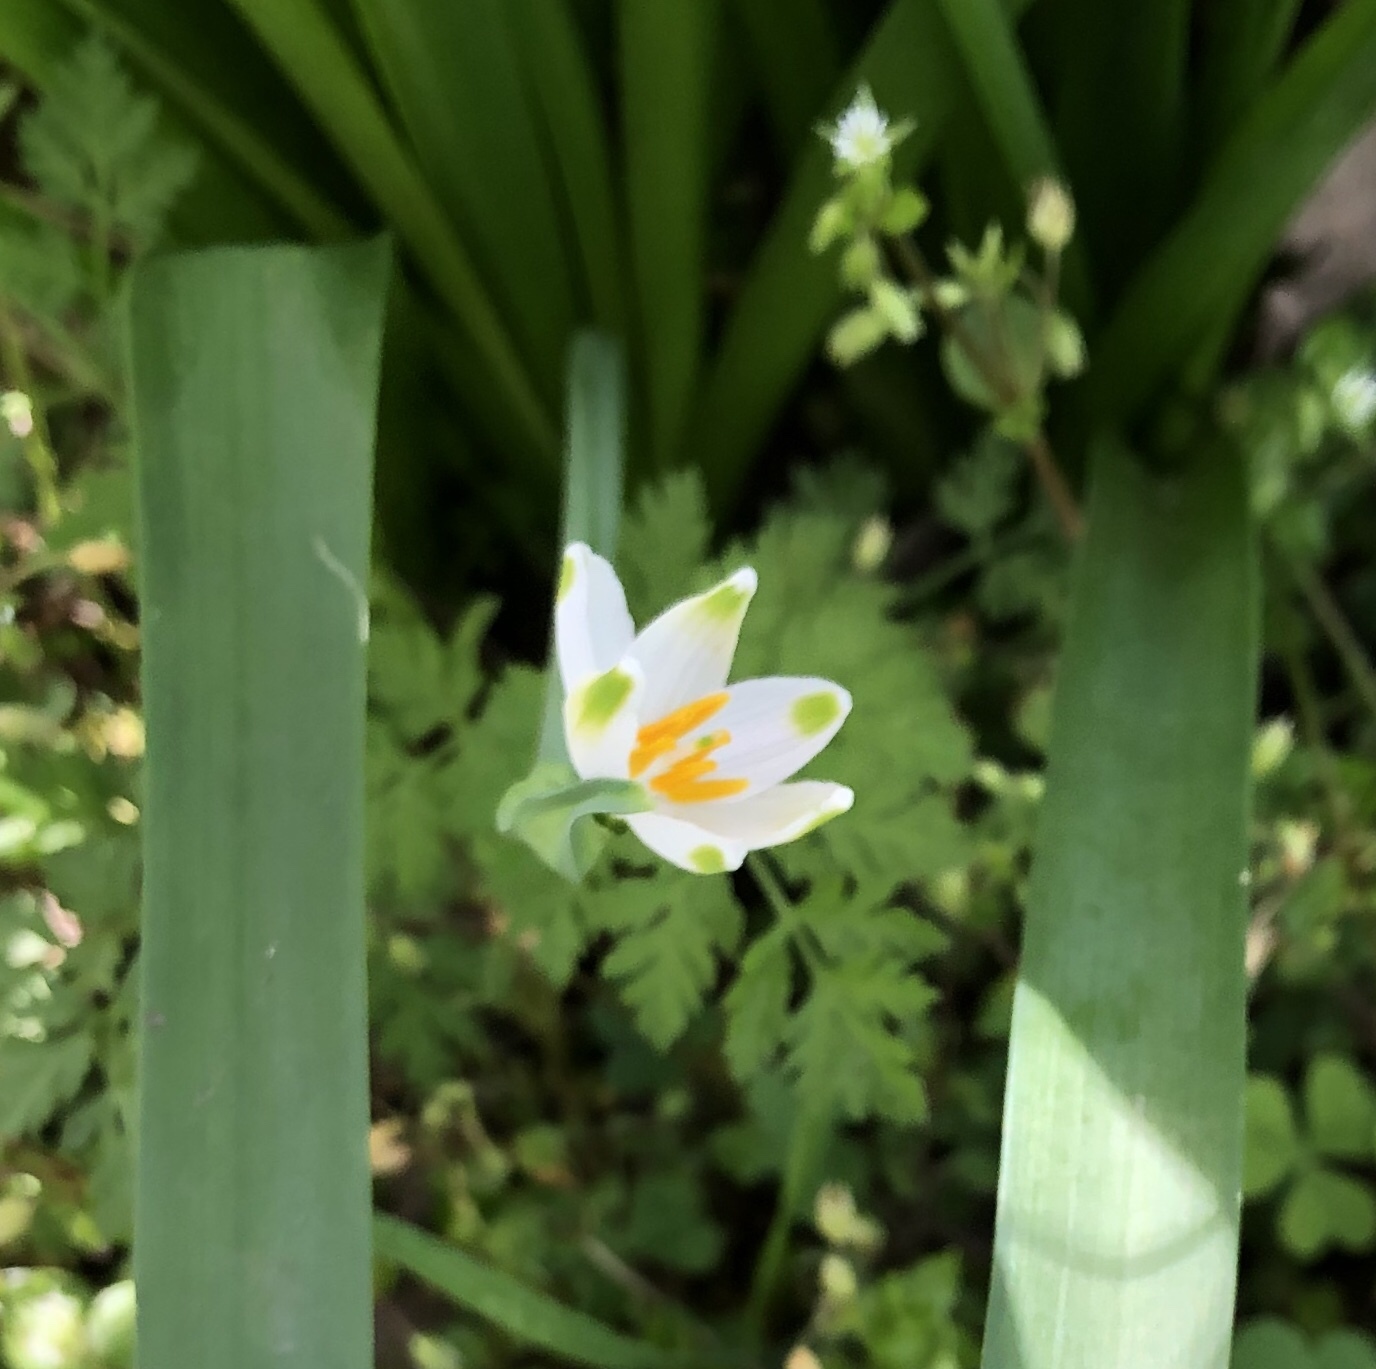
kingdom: Plantae
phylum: Tracheophyta
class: Liliopsida
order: Asparagales
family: Amaryllidaceae
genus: Leucojum
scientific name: Leucojum aestivum
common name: Summer snowflake
